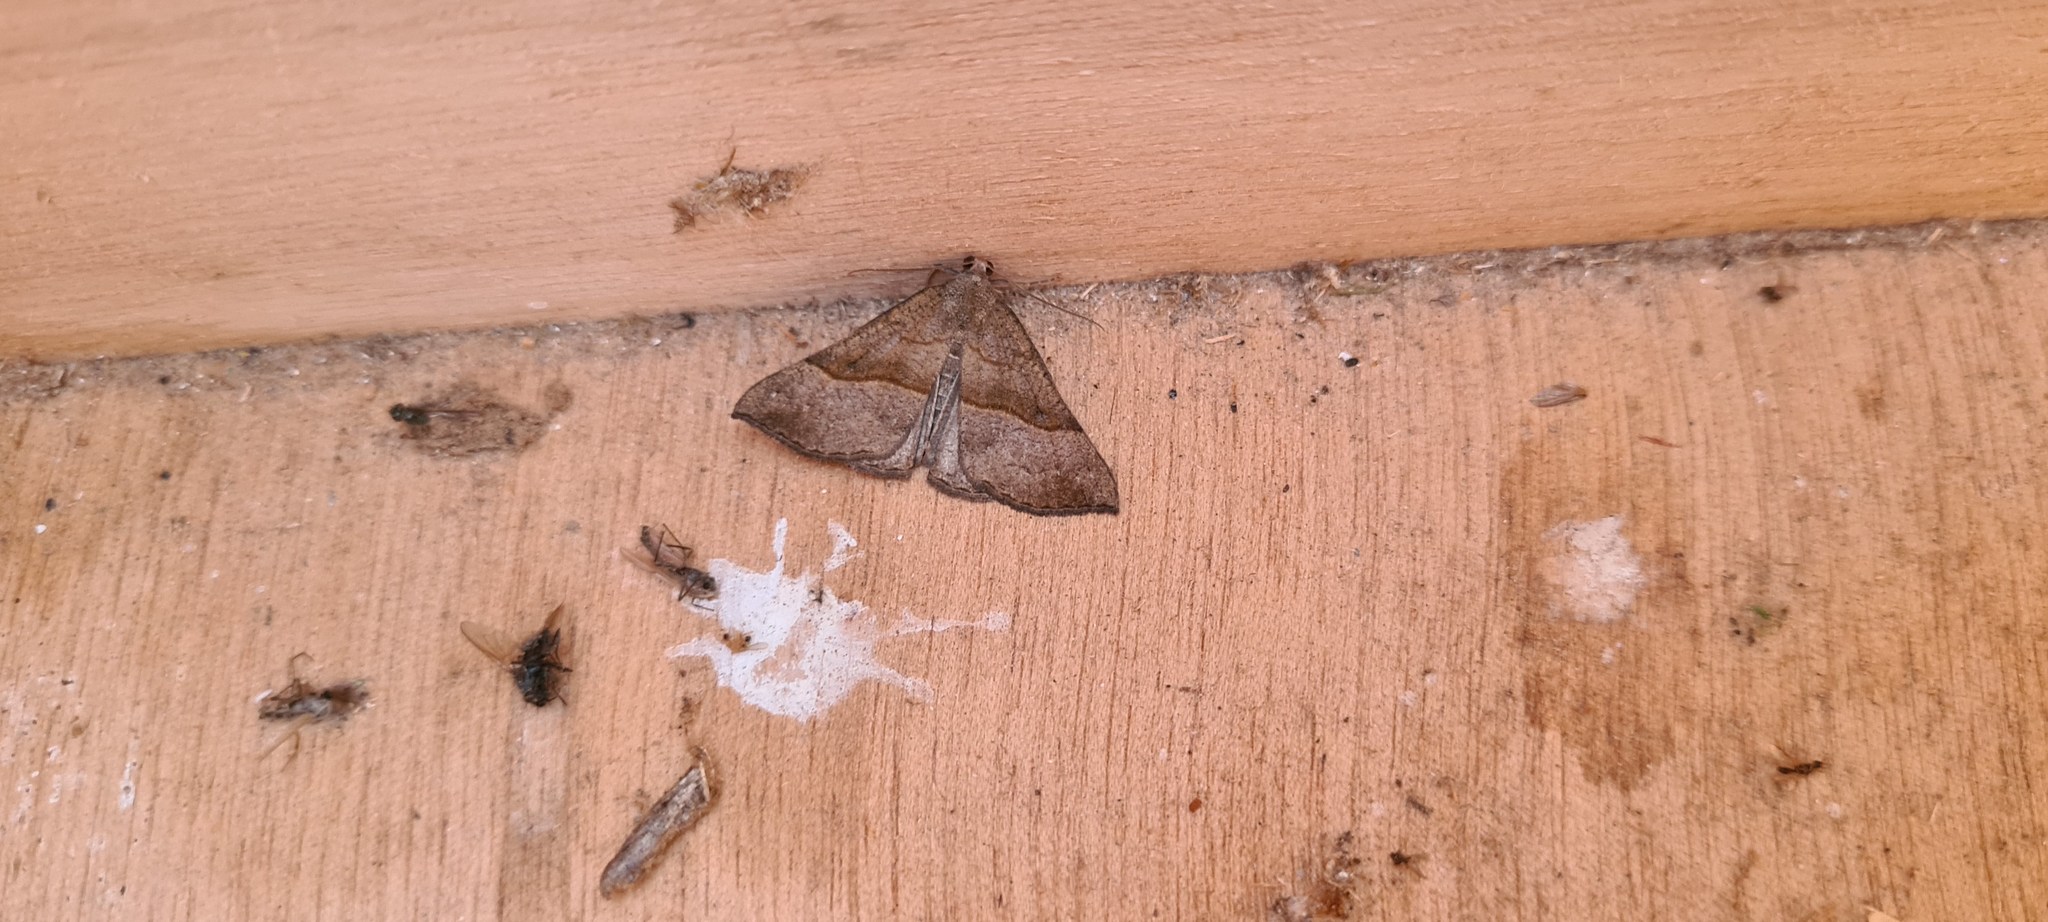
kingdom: Animalia
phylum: Arthropoda
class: Insecta
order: Lepidoptera
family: Erebidae
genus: Hypena
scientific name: Hypena proboscidalis
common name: Snout
